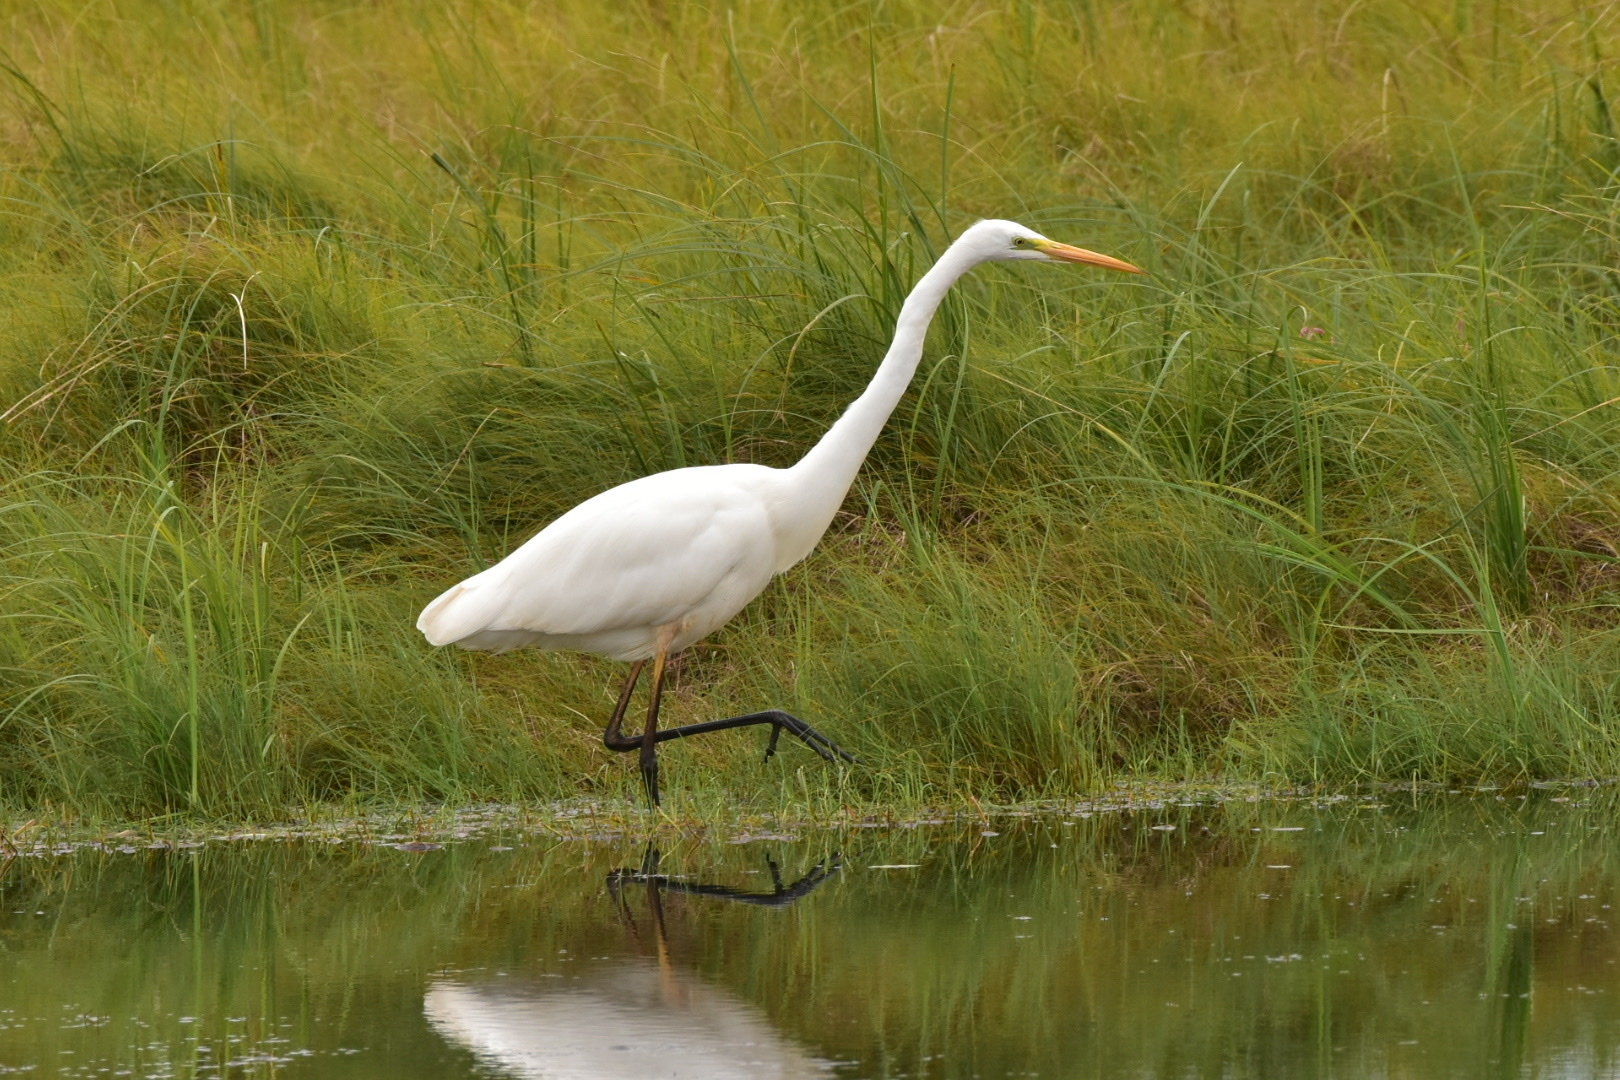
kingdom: Animalia
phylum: Chordata
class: Aves
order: Pelecaniformes
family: Ardeidae
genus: Ardea
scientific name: Ardea alba
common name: Great egret
